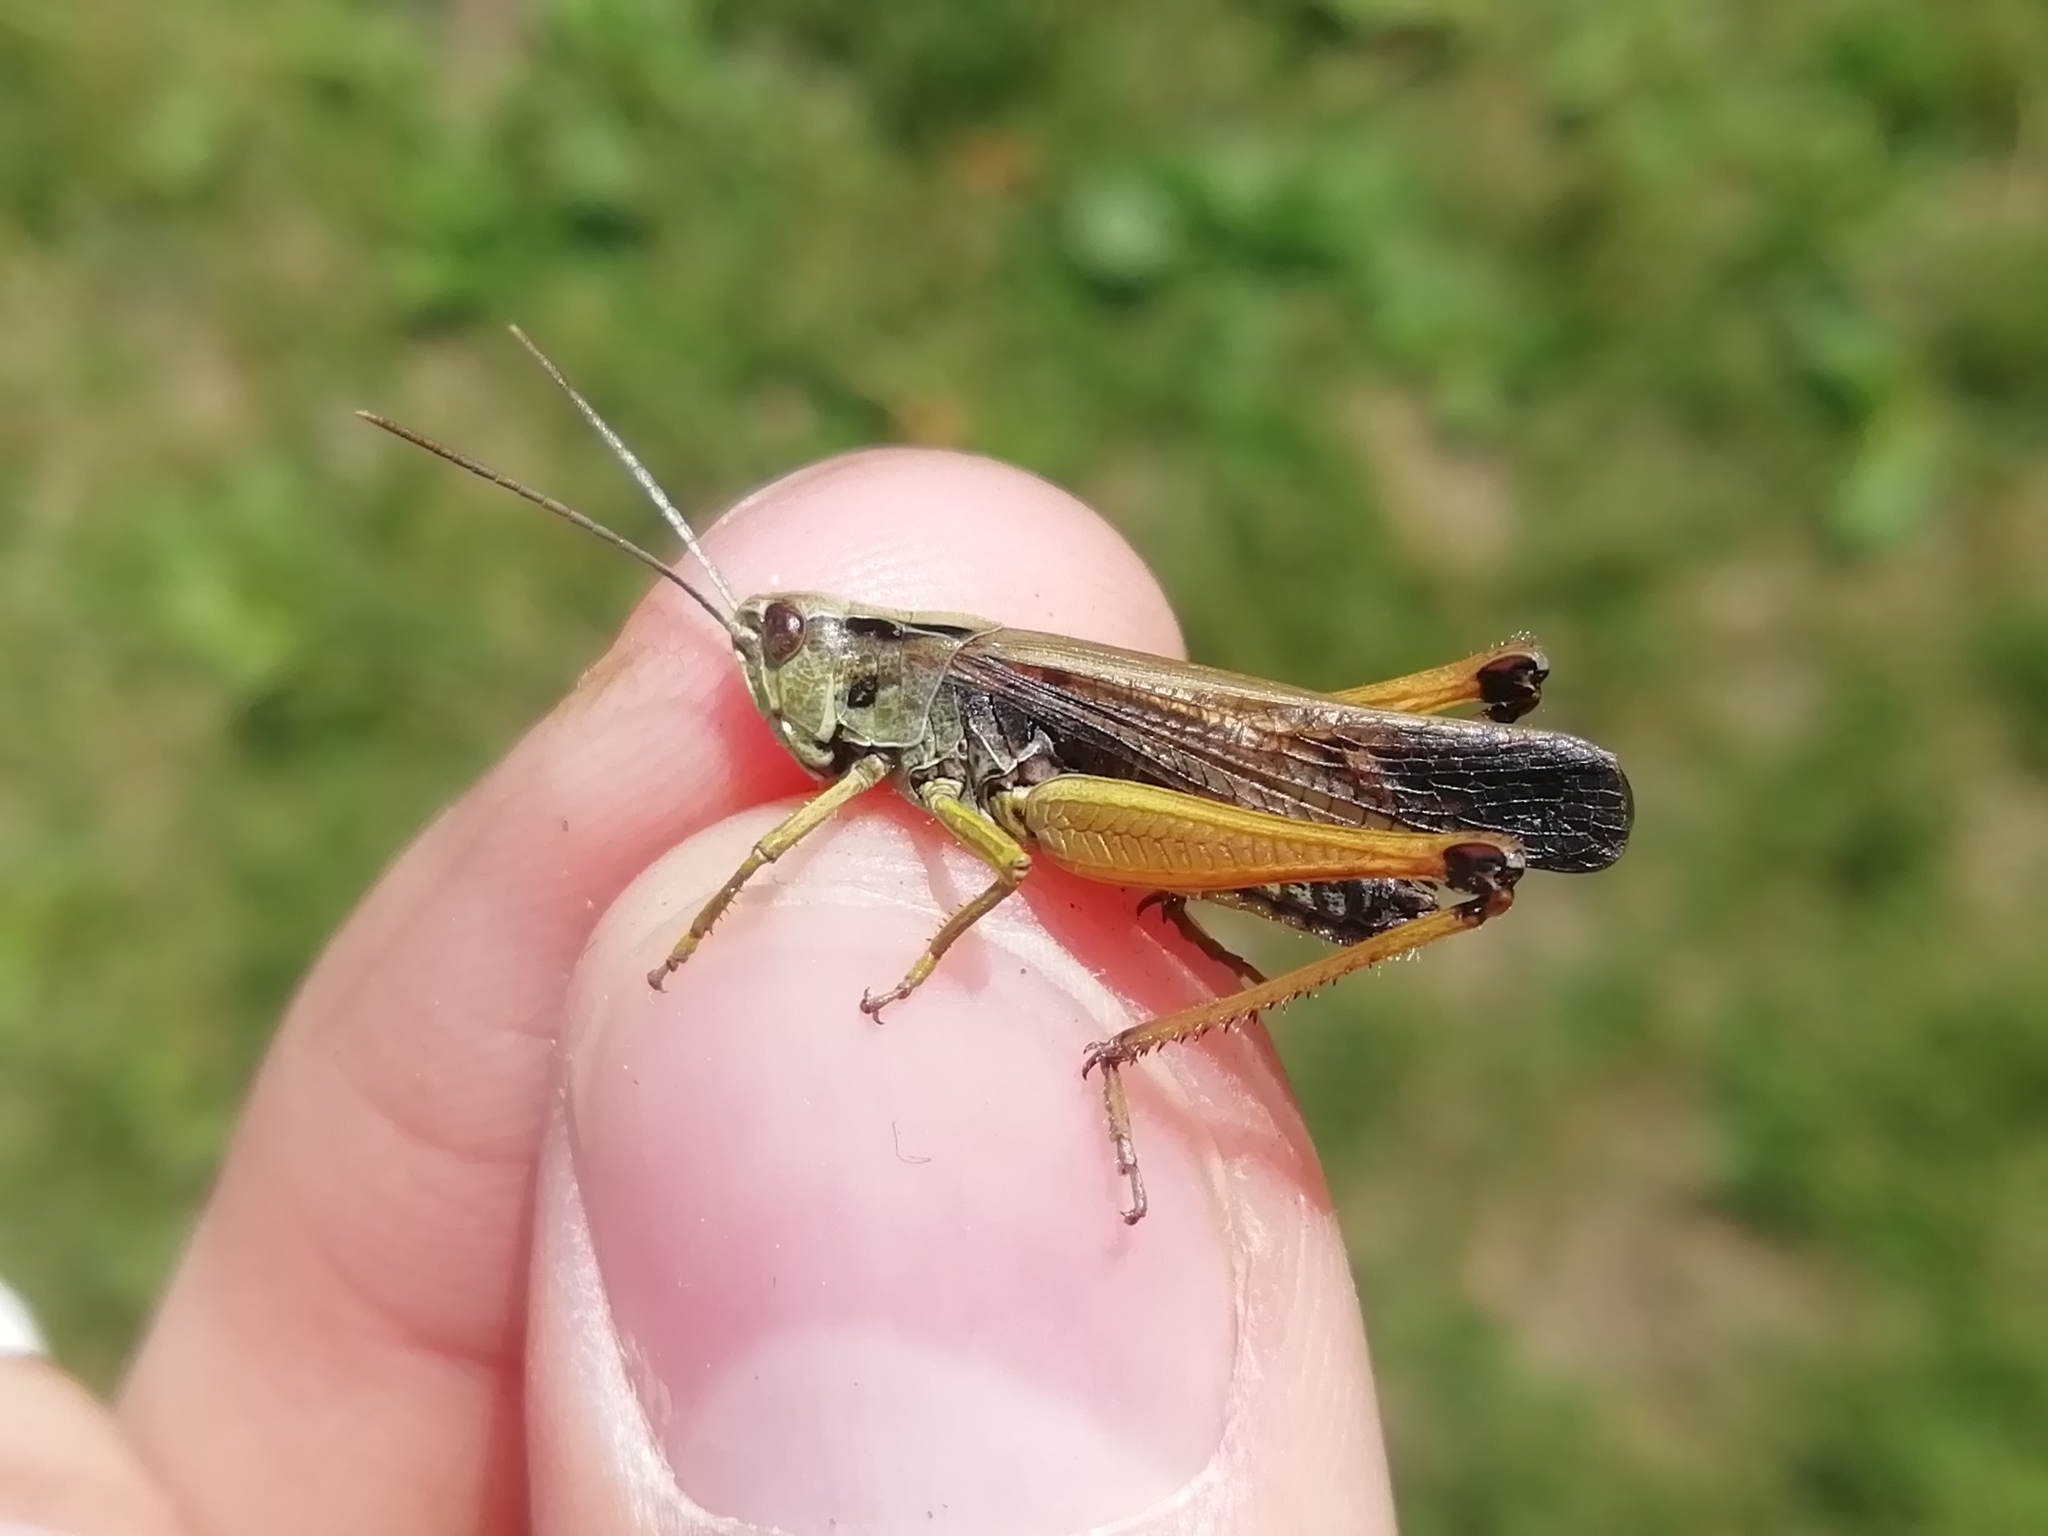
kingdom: Animalia
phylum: Arthropoda
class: Insecta
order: Orthoptera
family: Acrididae
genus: Omocestus
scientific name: Omocestus viridulus
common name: Common green grasshopper
